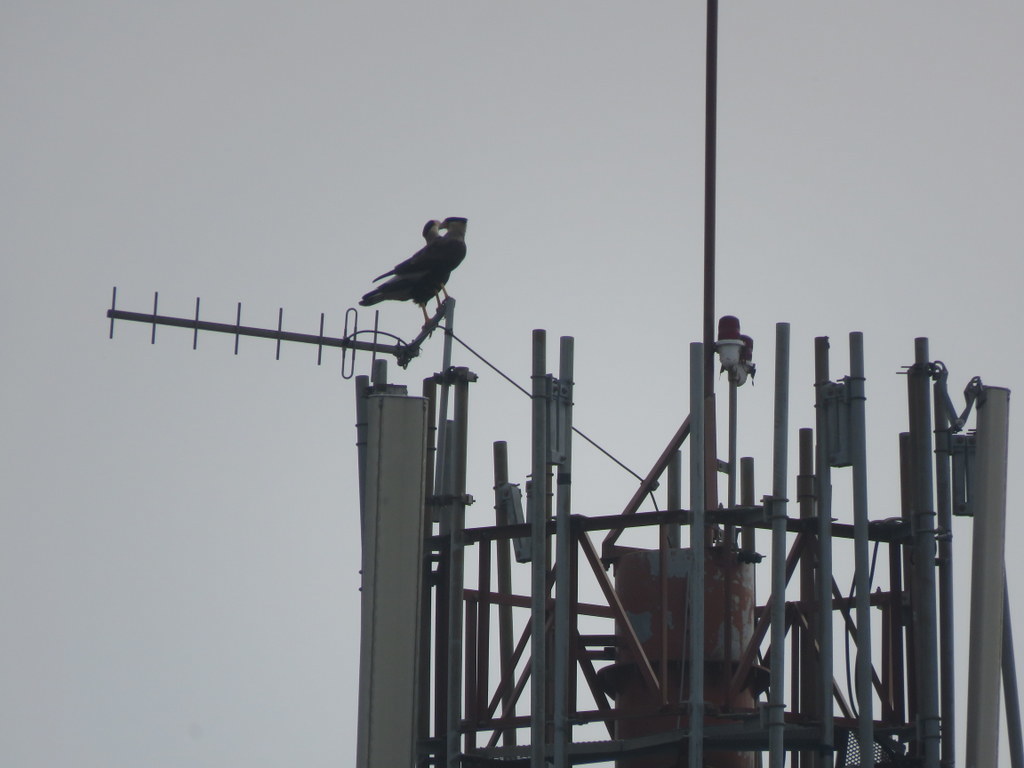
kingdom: Animalia
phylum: Chordata
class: Aves
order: Falconiformes
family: Falconidae
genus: Caracara
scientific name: Caracara plancus
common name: Southern caracara
